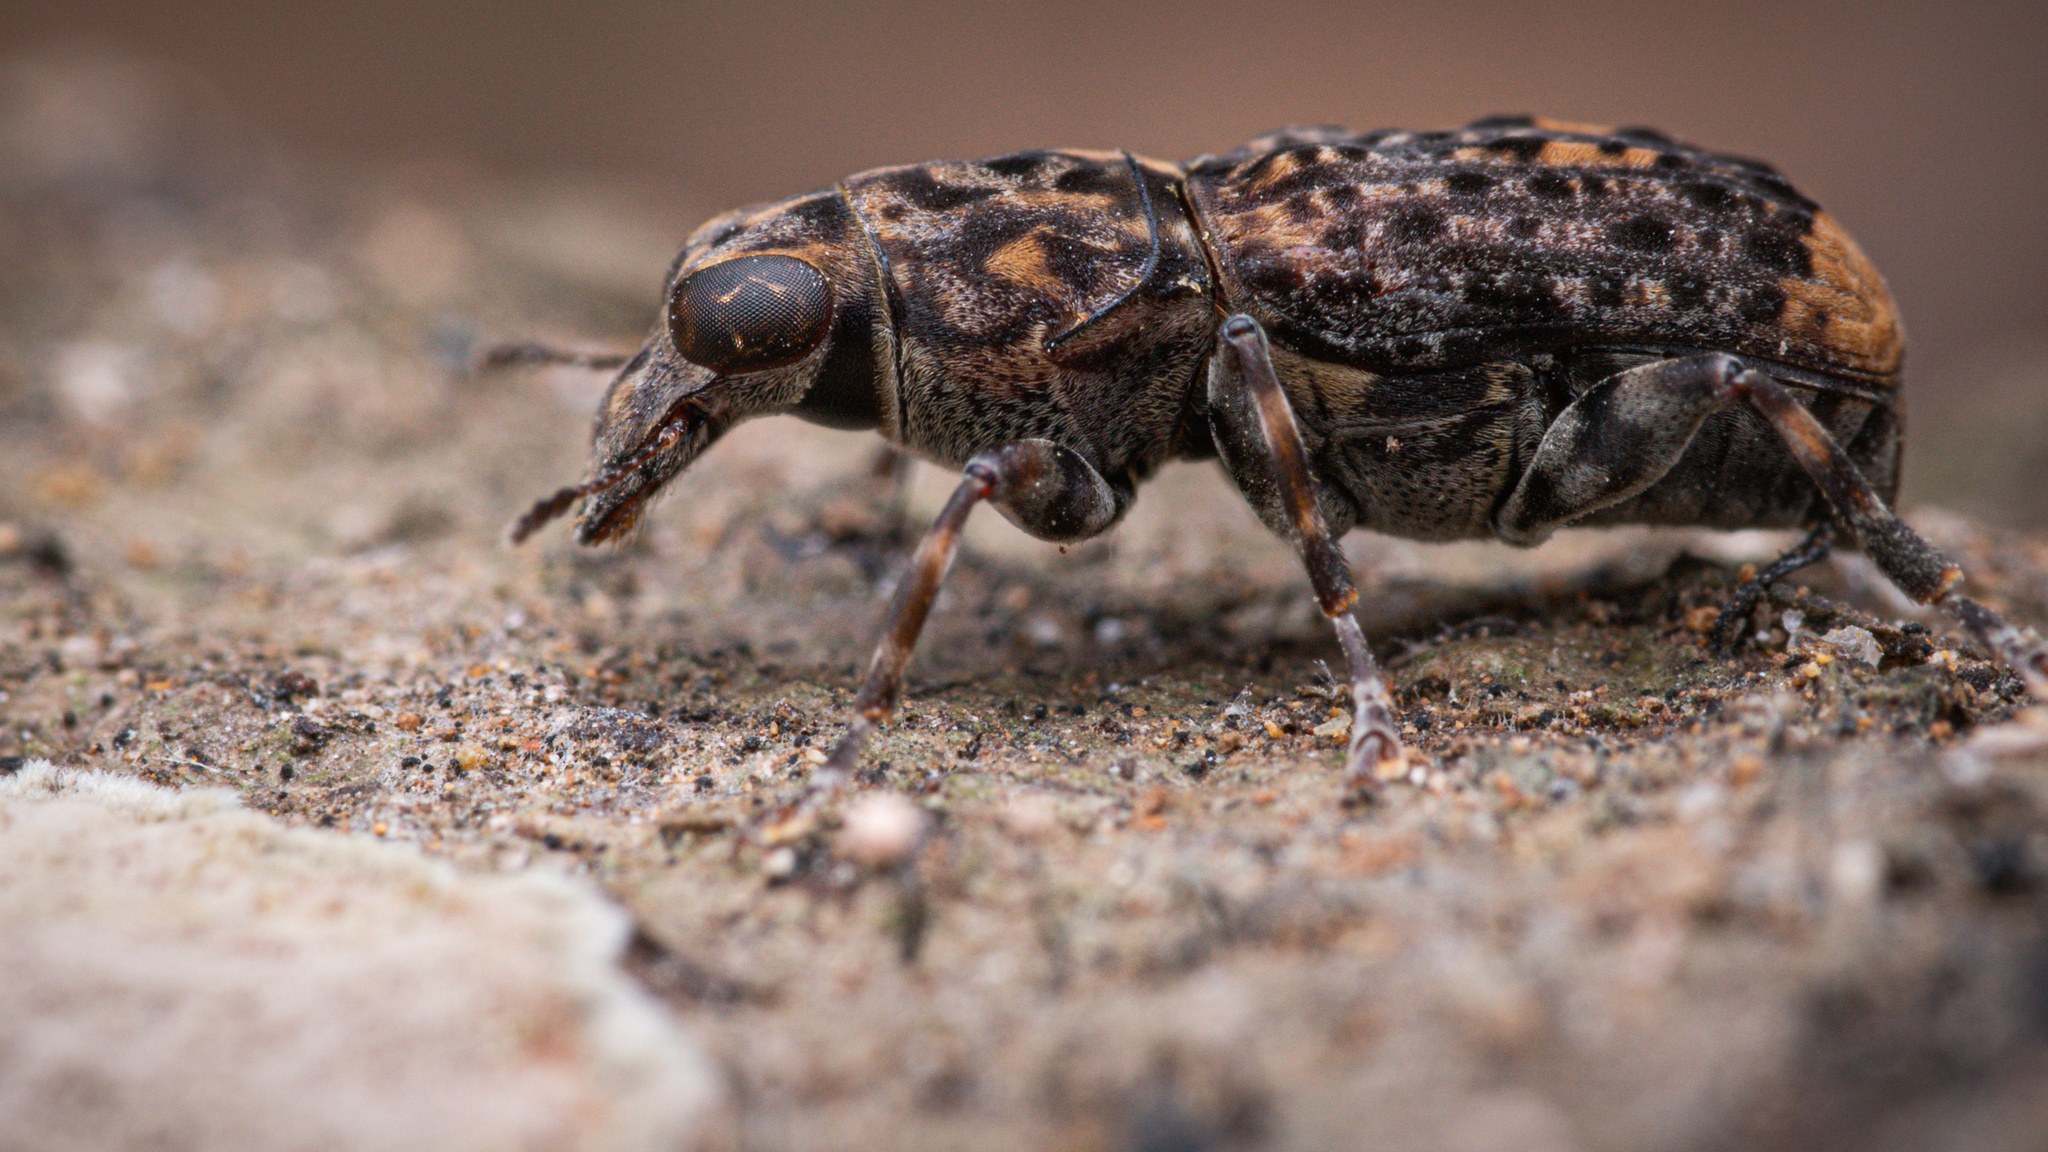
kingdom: Animalia
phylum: Arthropoda
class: Insecta
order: Coleoptera
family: Anthribidae
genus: Nessiara
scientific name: Nessiara variegata
